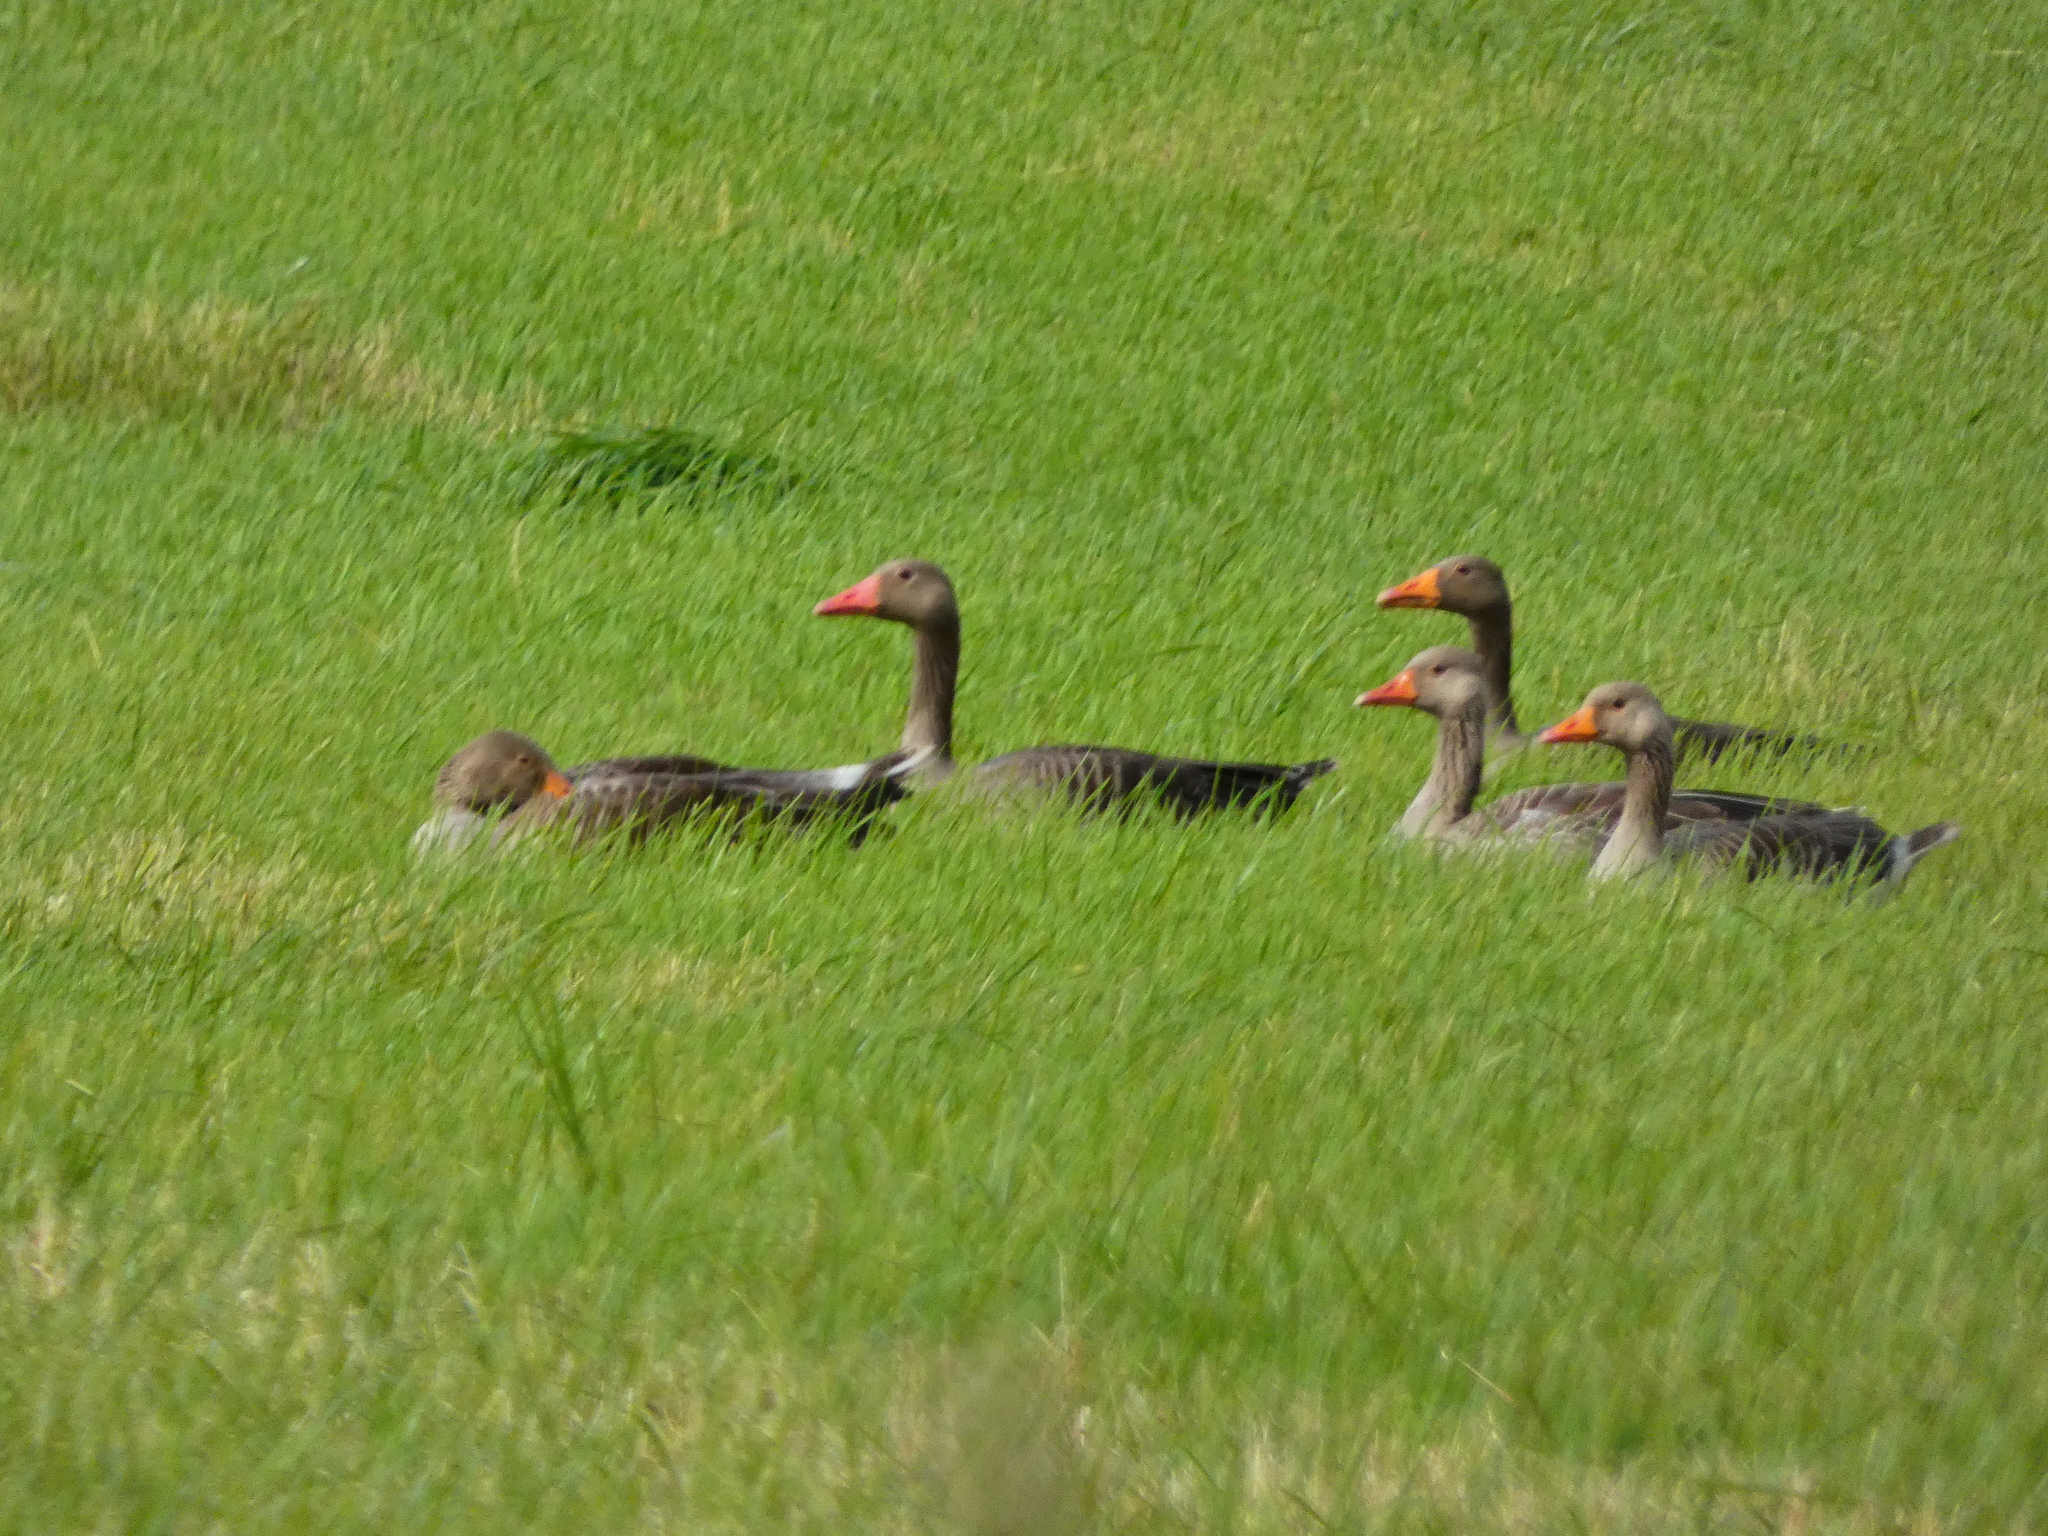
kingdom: Animalia
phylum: Chordata
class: Aves
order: Anseriformes
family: Anatidae
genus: Anser
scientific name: Anser anser
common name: Greylag goose
